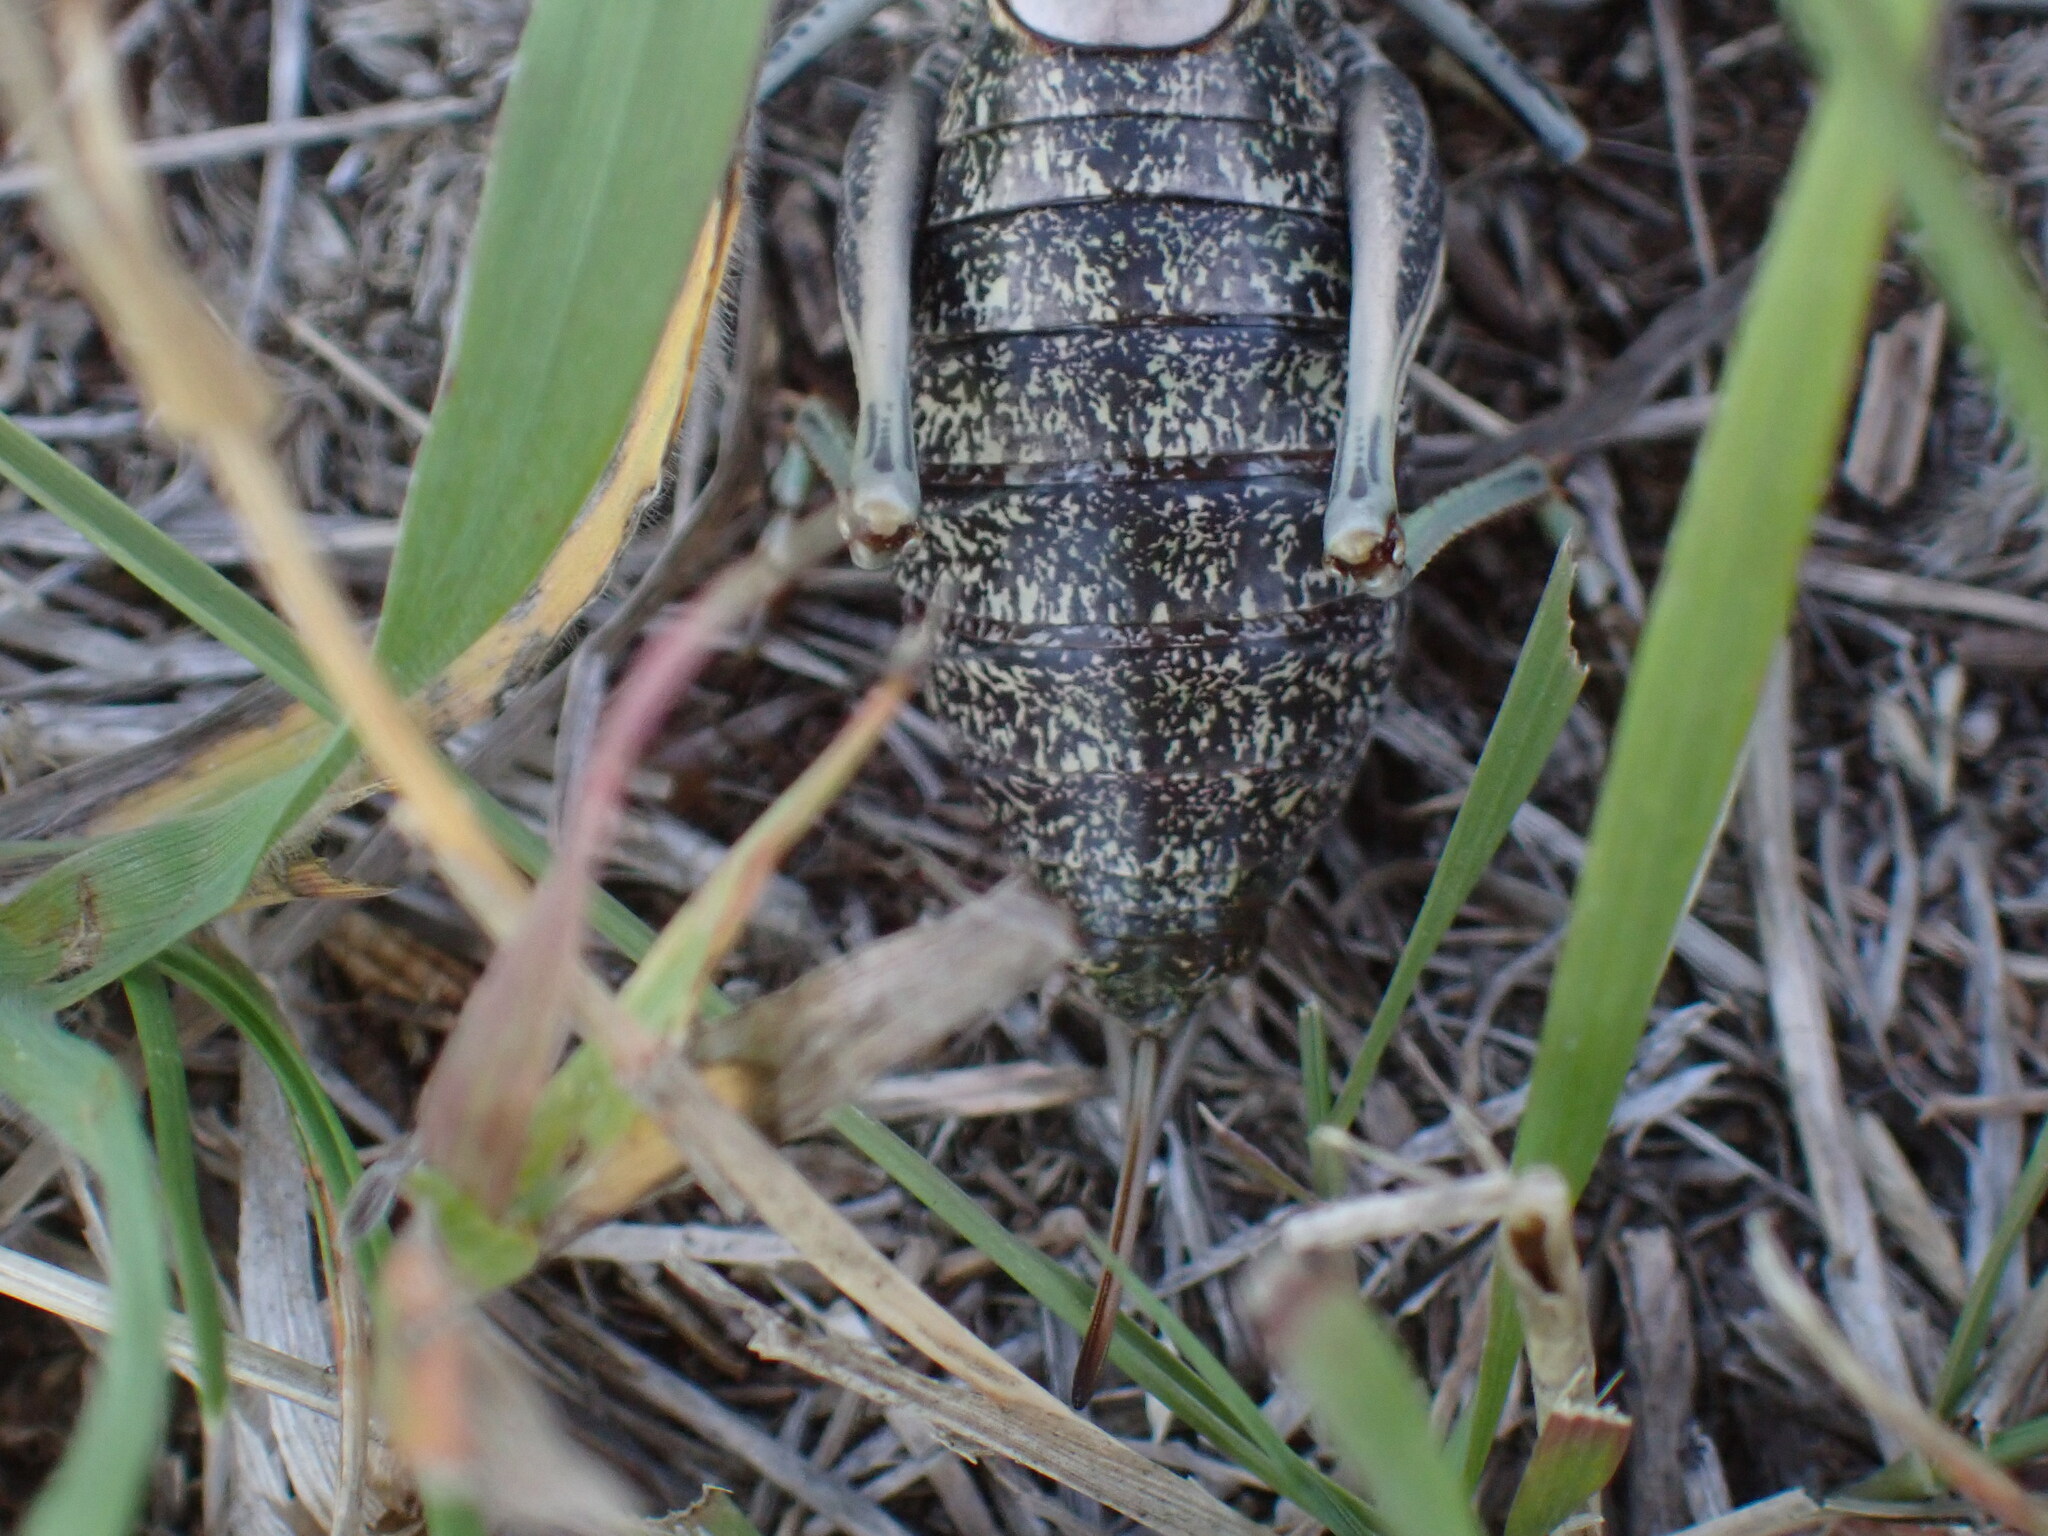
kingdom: Animalia
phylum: Arthropoda
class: Insecta
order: Orthoptera
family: Tettigoniidae
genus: Anabrus
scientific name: Anabrus simplex
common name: Mormon cricket
